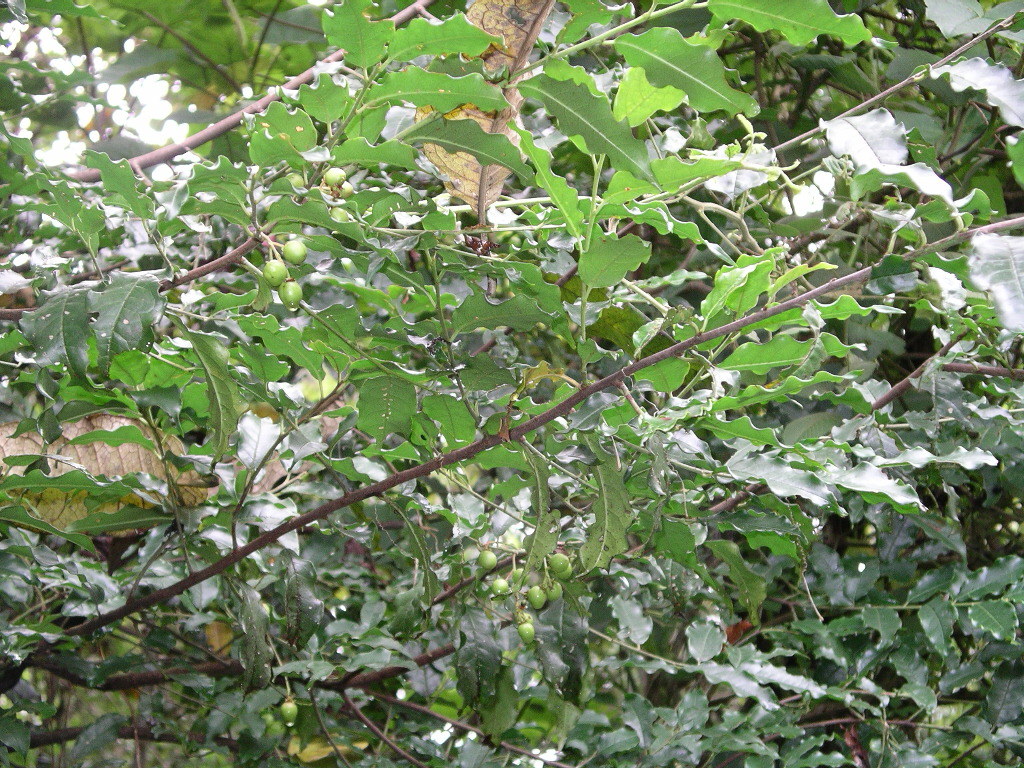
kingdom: Plantae
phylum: Tracheophyta
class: Magnoliopsida
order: Rosales
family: Rosaceae
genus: Prunus
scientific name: Prunus rhamnoides
